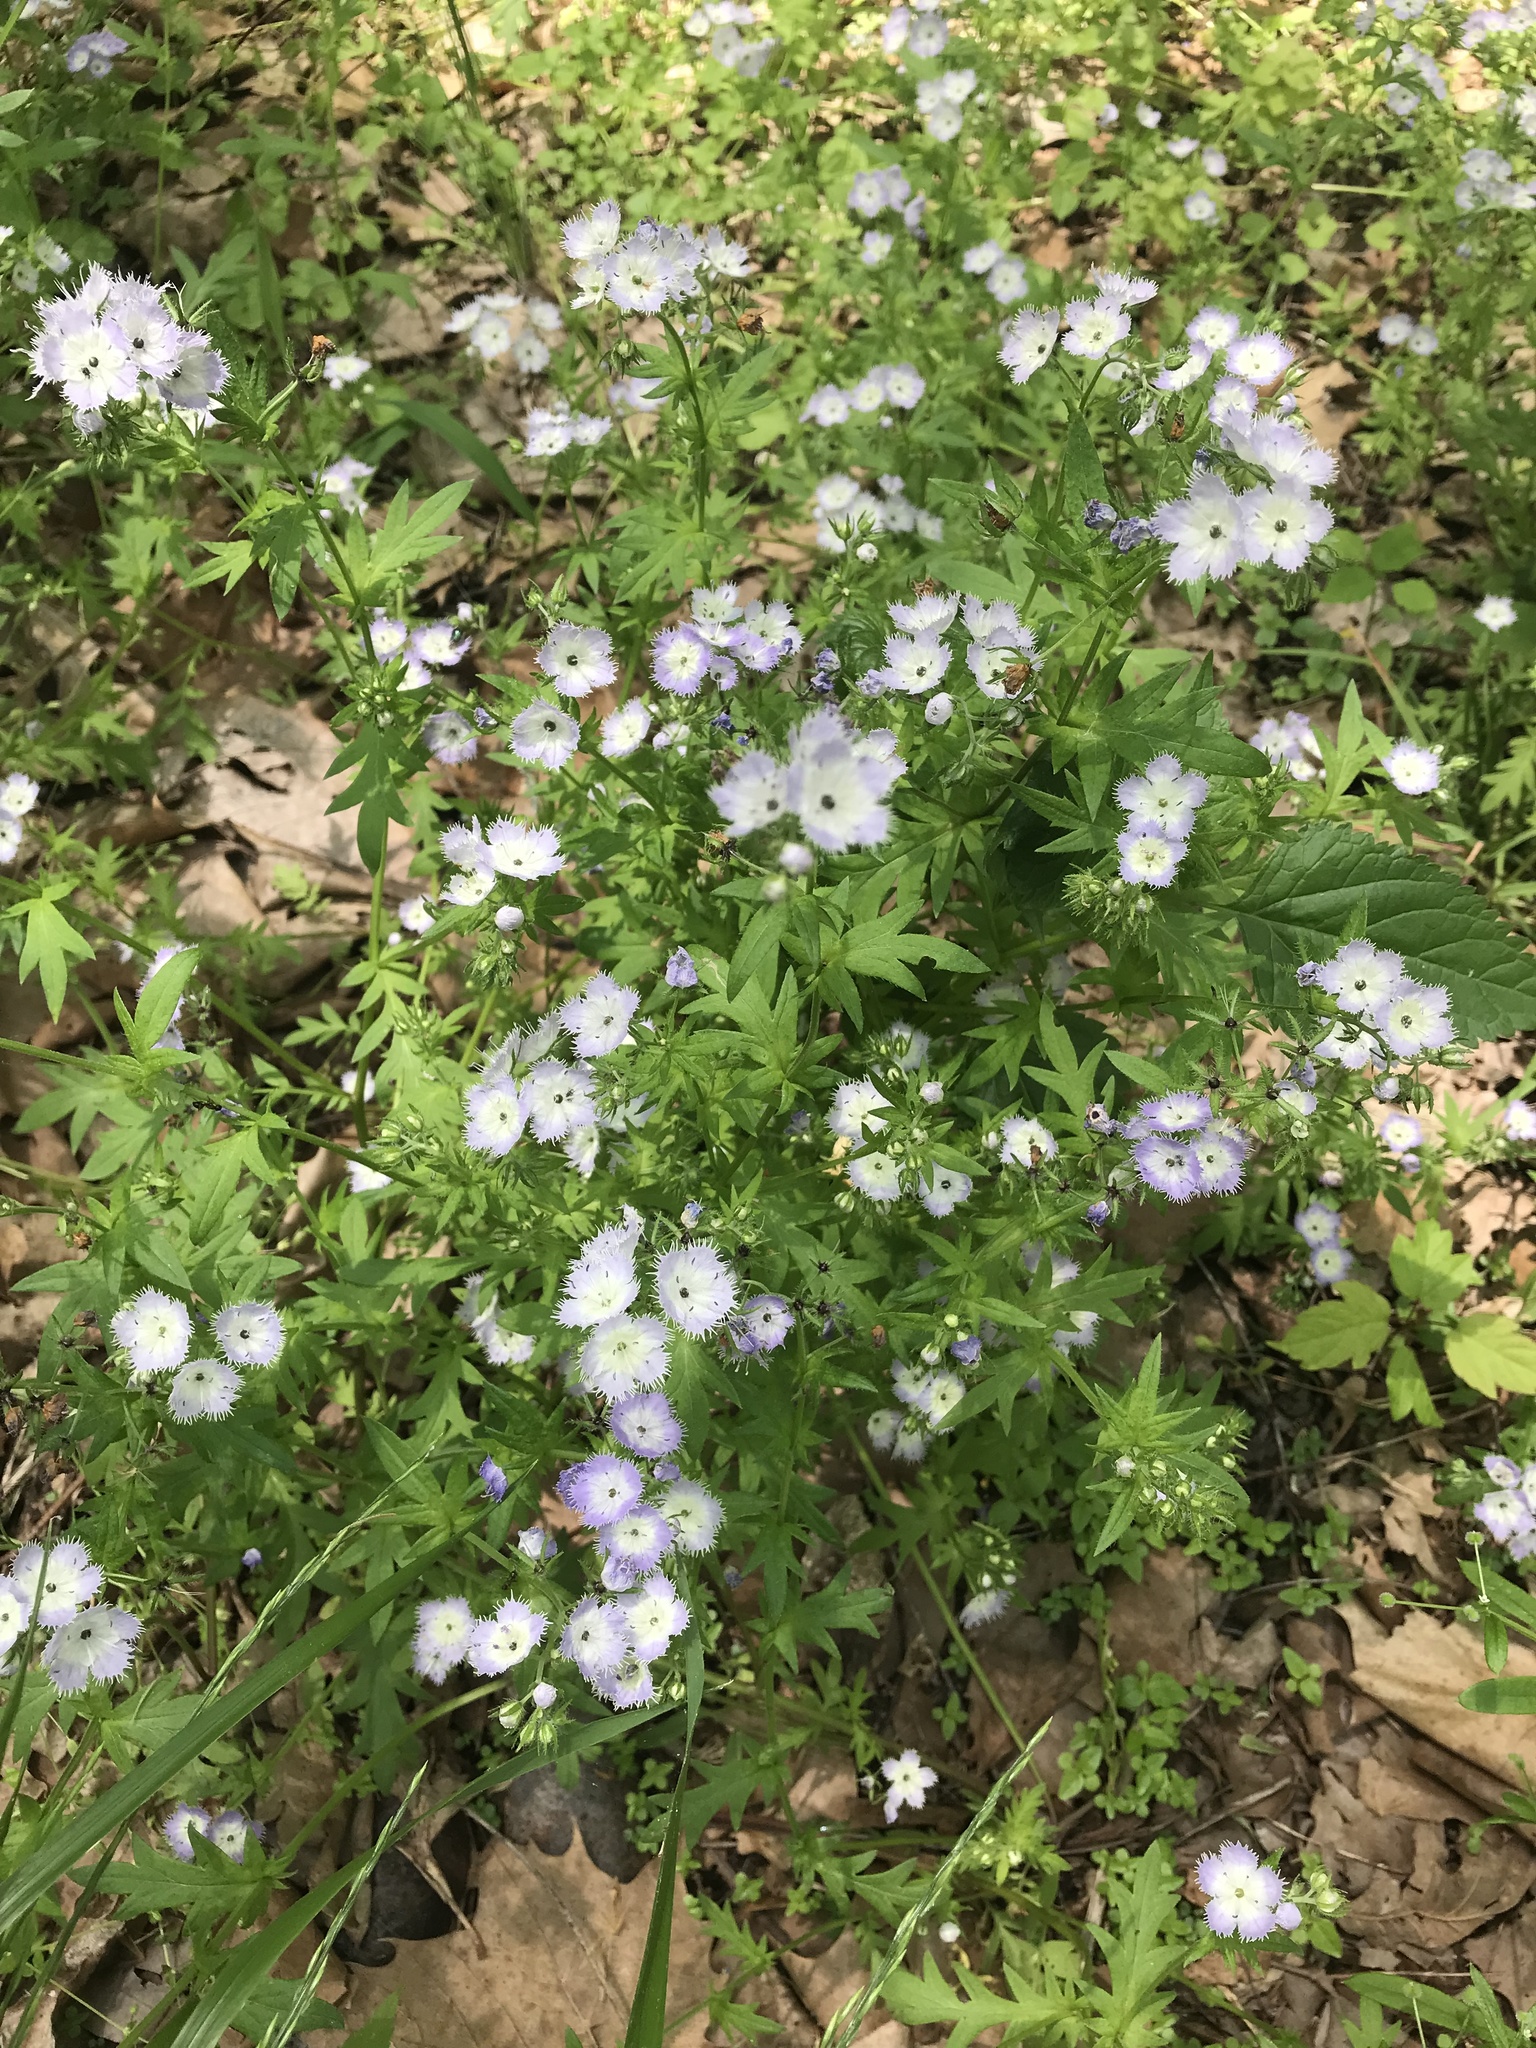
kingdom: Plantae
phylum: Tracheophyta
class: Magnoliopsida
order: Boraginales
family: Hydrophyllaceae
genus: Phacelia
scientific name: Phacelia purshii
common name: Miami-mist
